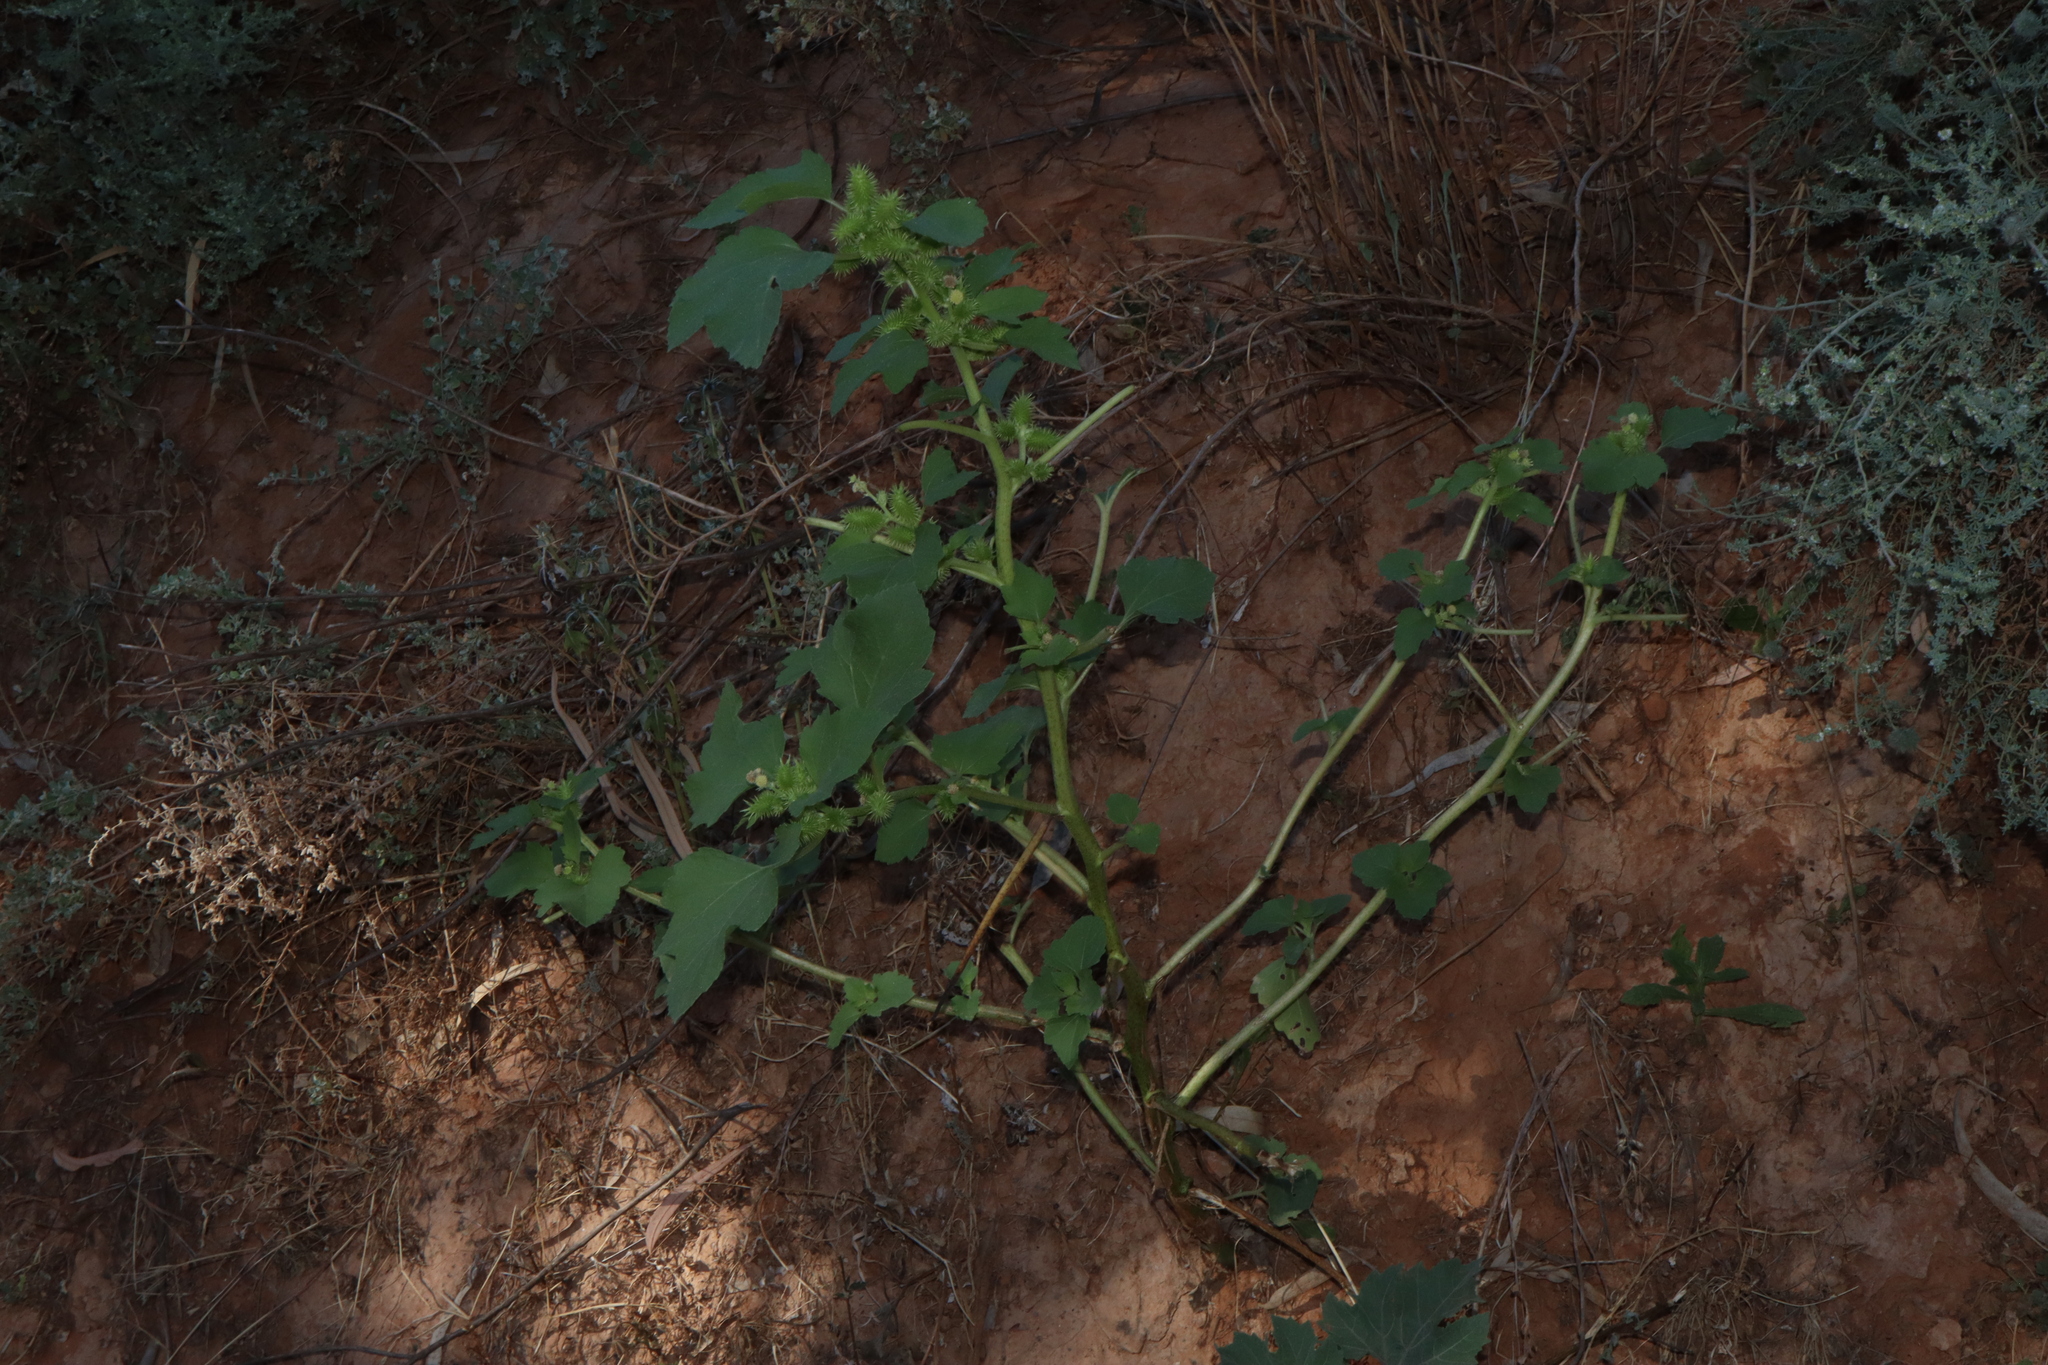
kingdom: Plantae
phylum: Tracheophyta
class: Magnoliopsida
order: Asterales
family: Asteraceae
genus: Xanthium
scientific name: Xanthium strumarium
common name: Rough cocklebur
